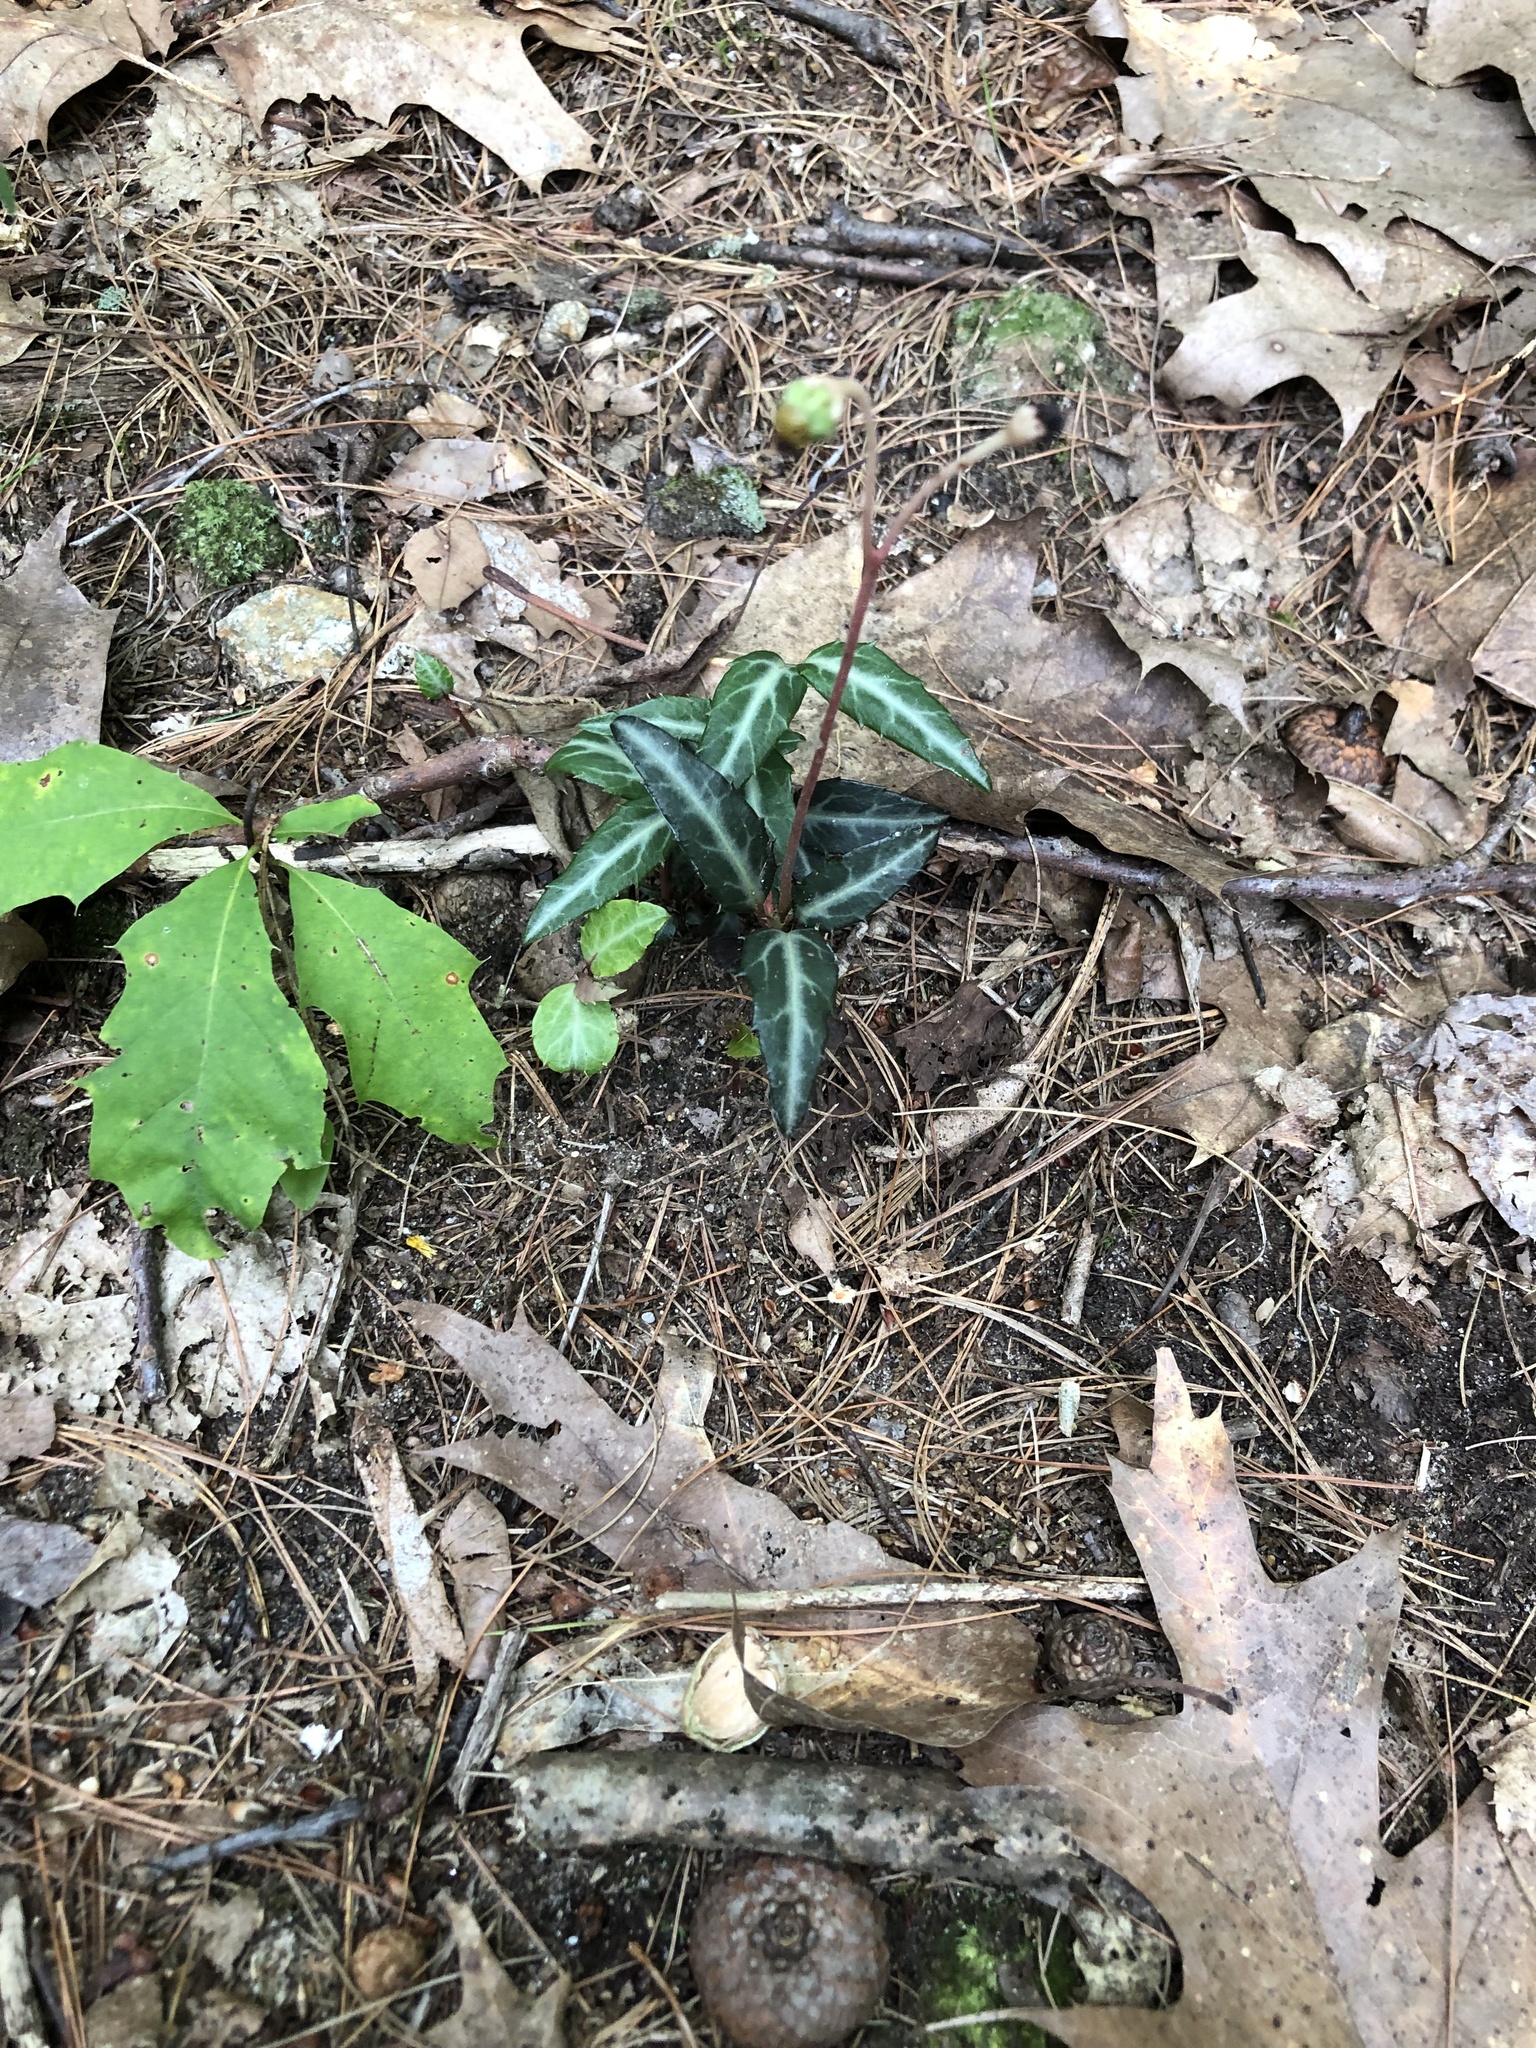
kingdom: Plantae
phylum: Tracheophyta
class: Magnoliopsida
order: Ericales
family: Ericaceae
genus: Chimaphila
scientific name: Chimaphila maculata
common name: Spotted pipsissewa
